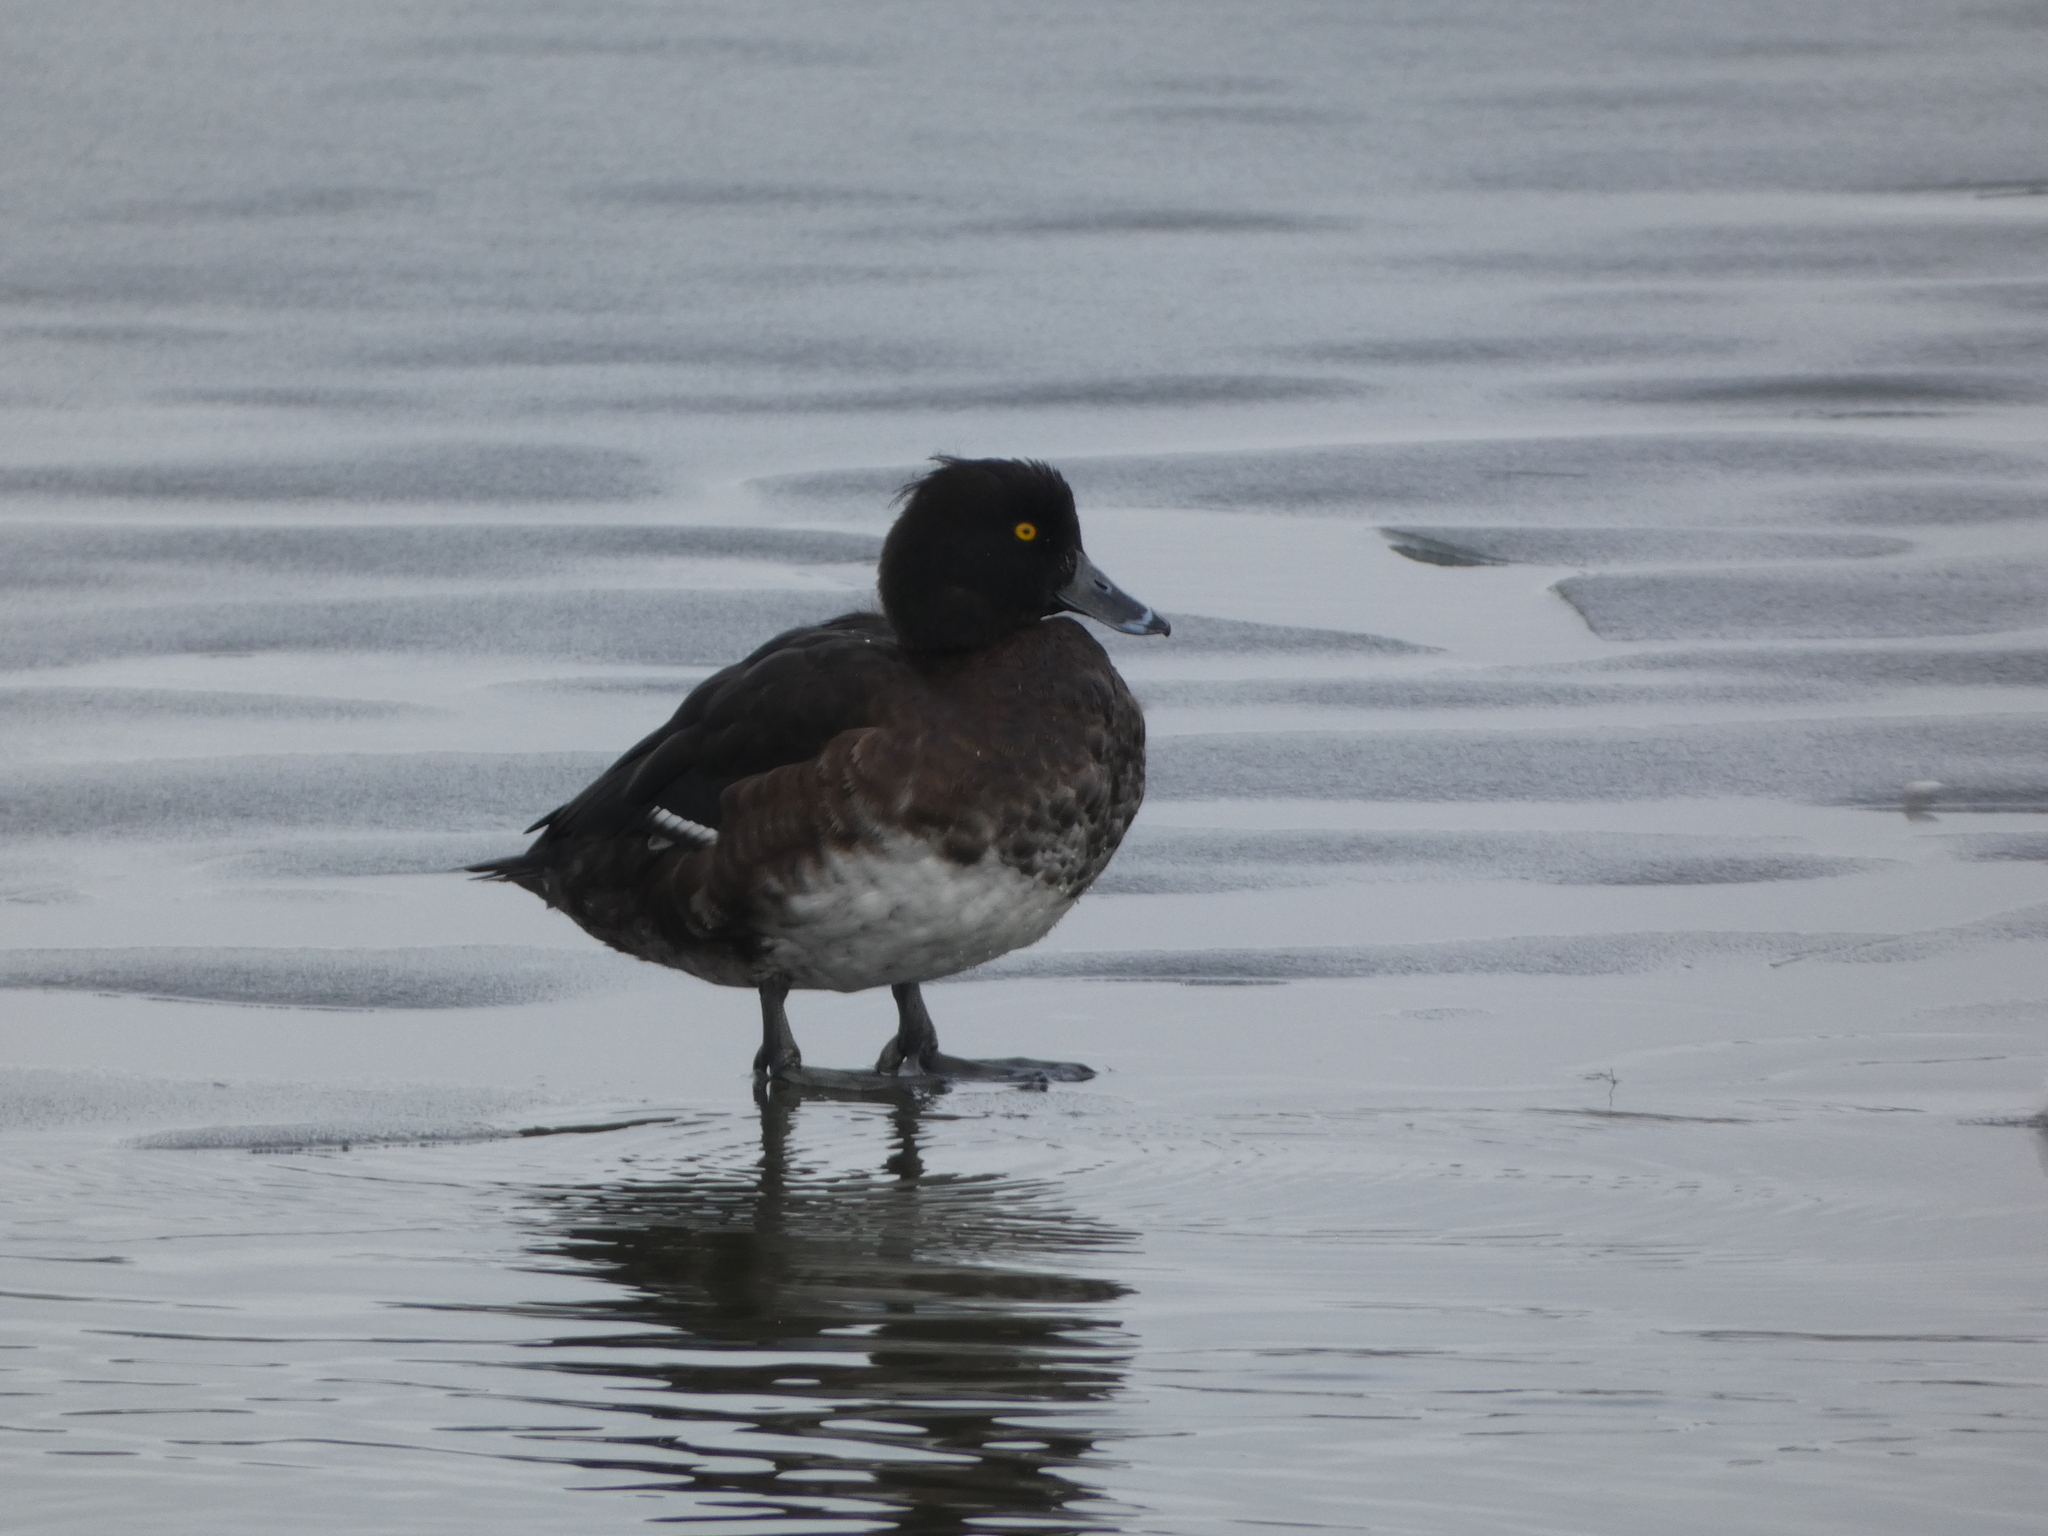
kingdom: Animalia
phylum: Chordata
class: Aves
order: Anseriformes
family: Anatidae
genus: Aythya
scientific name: Aythya fuligula
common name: Tufted duck
